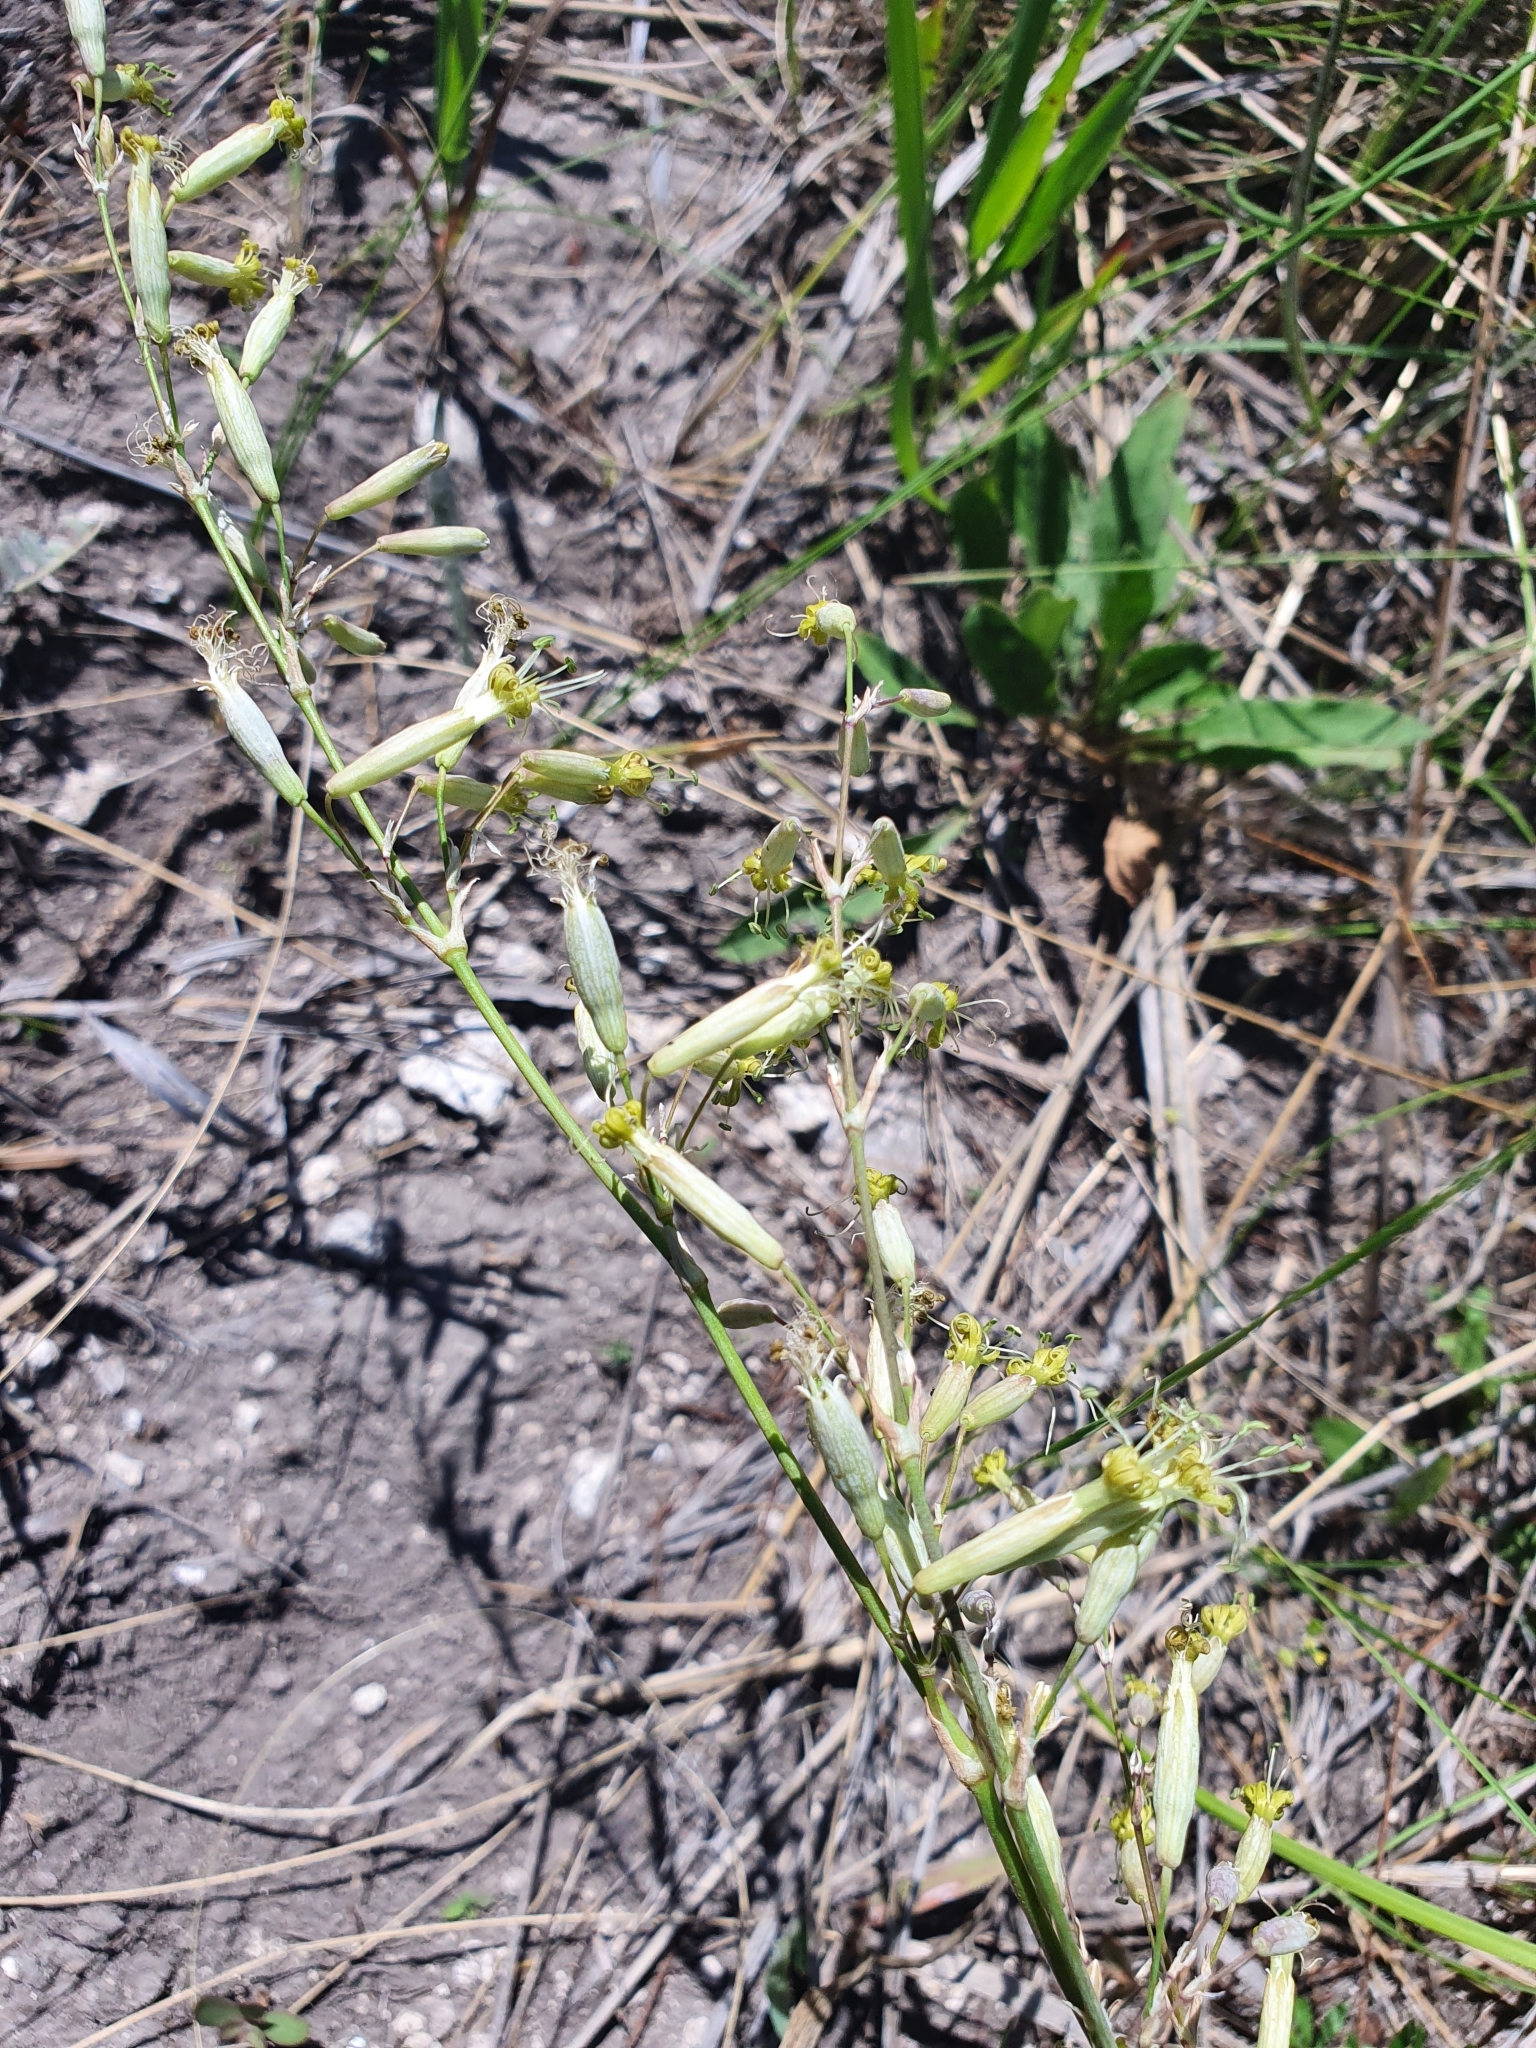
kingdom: Plantae
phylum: Tracheophyta
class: Magnoliopsida
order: Caryophyllales
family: Caryophyllaceae
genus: Silene
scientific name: Silene chlorantha
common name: Yellowgreen catchfly
